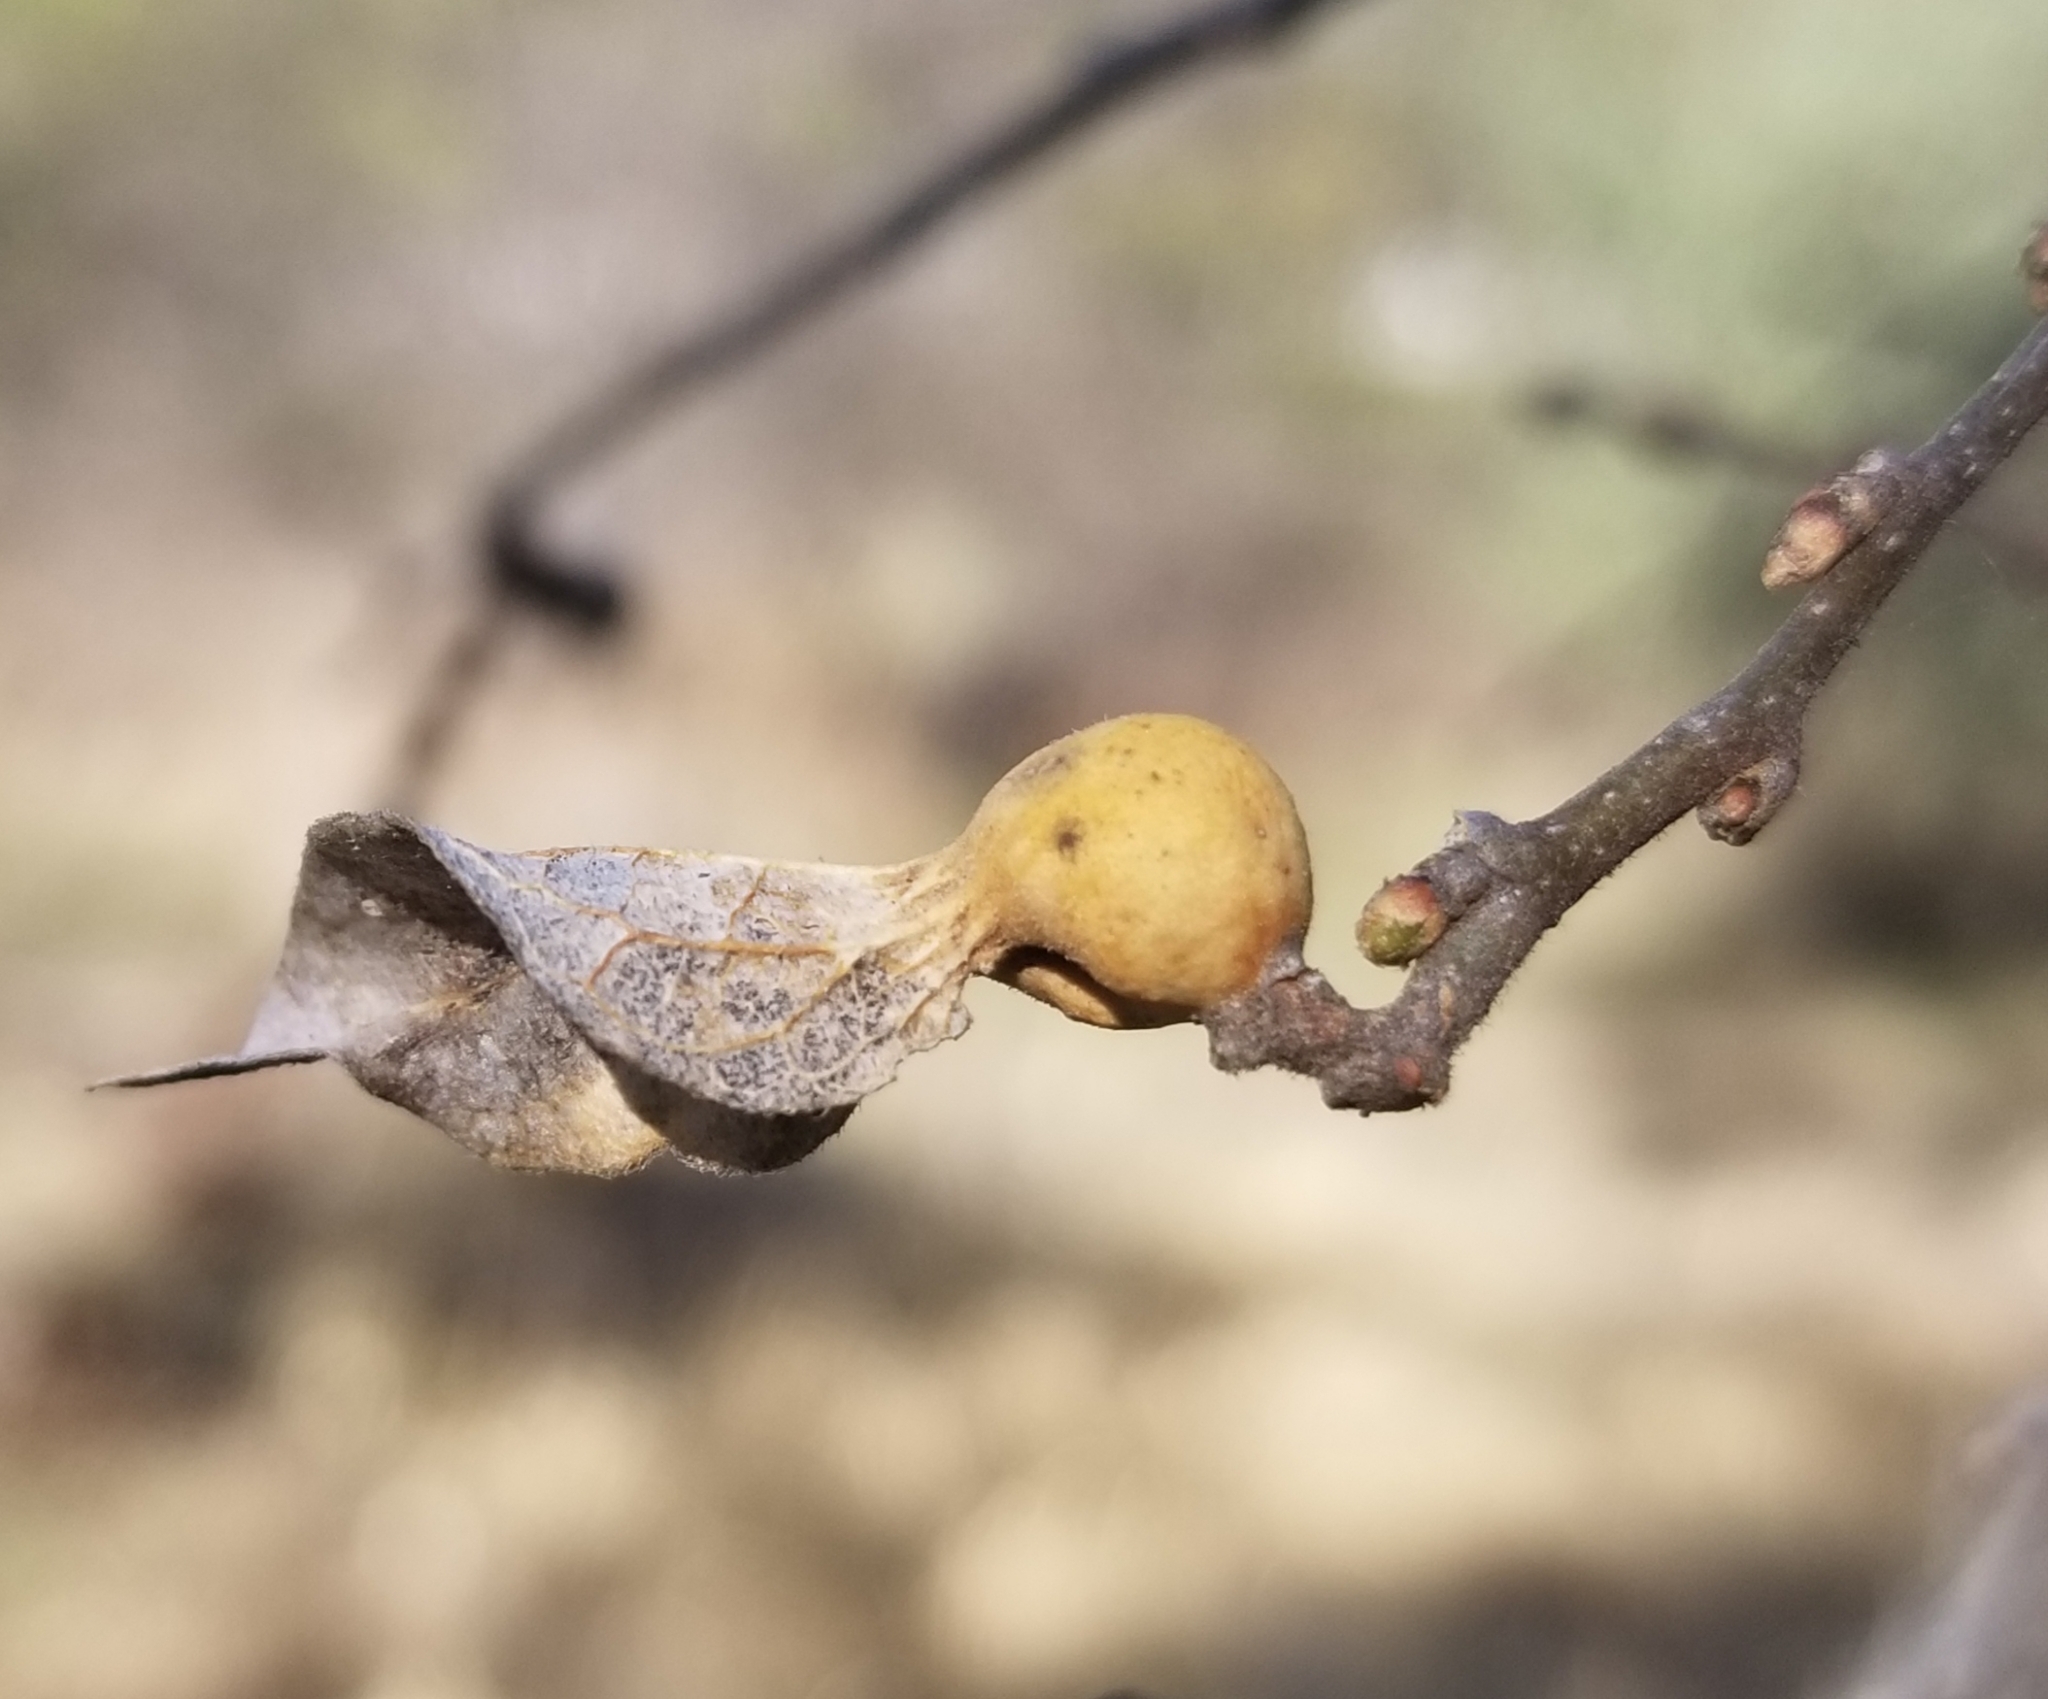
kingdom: Animalia
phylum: Arthropoda
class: Insecta
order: Hemiptera
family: Aphalaridae
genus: Pachypsylla
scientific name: Pachypsylla venusta
